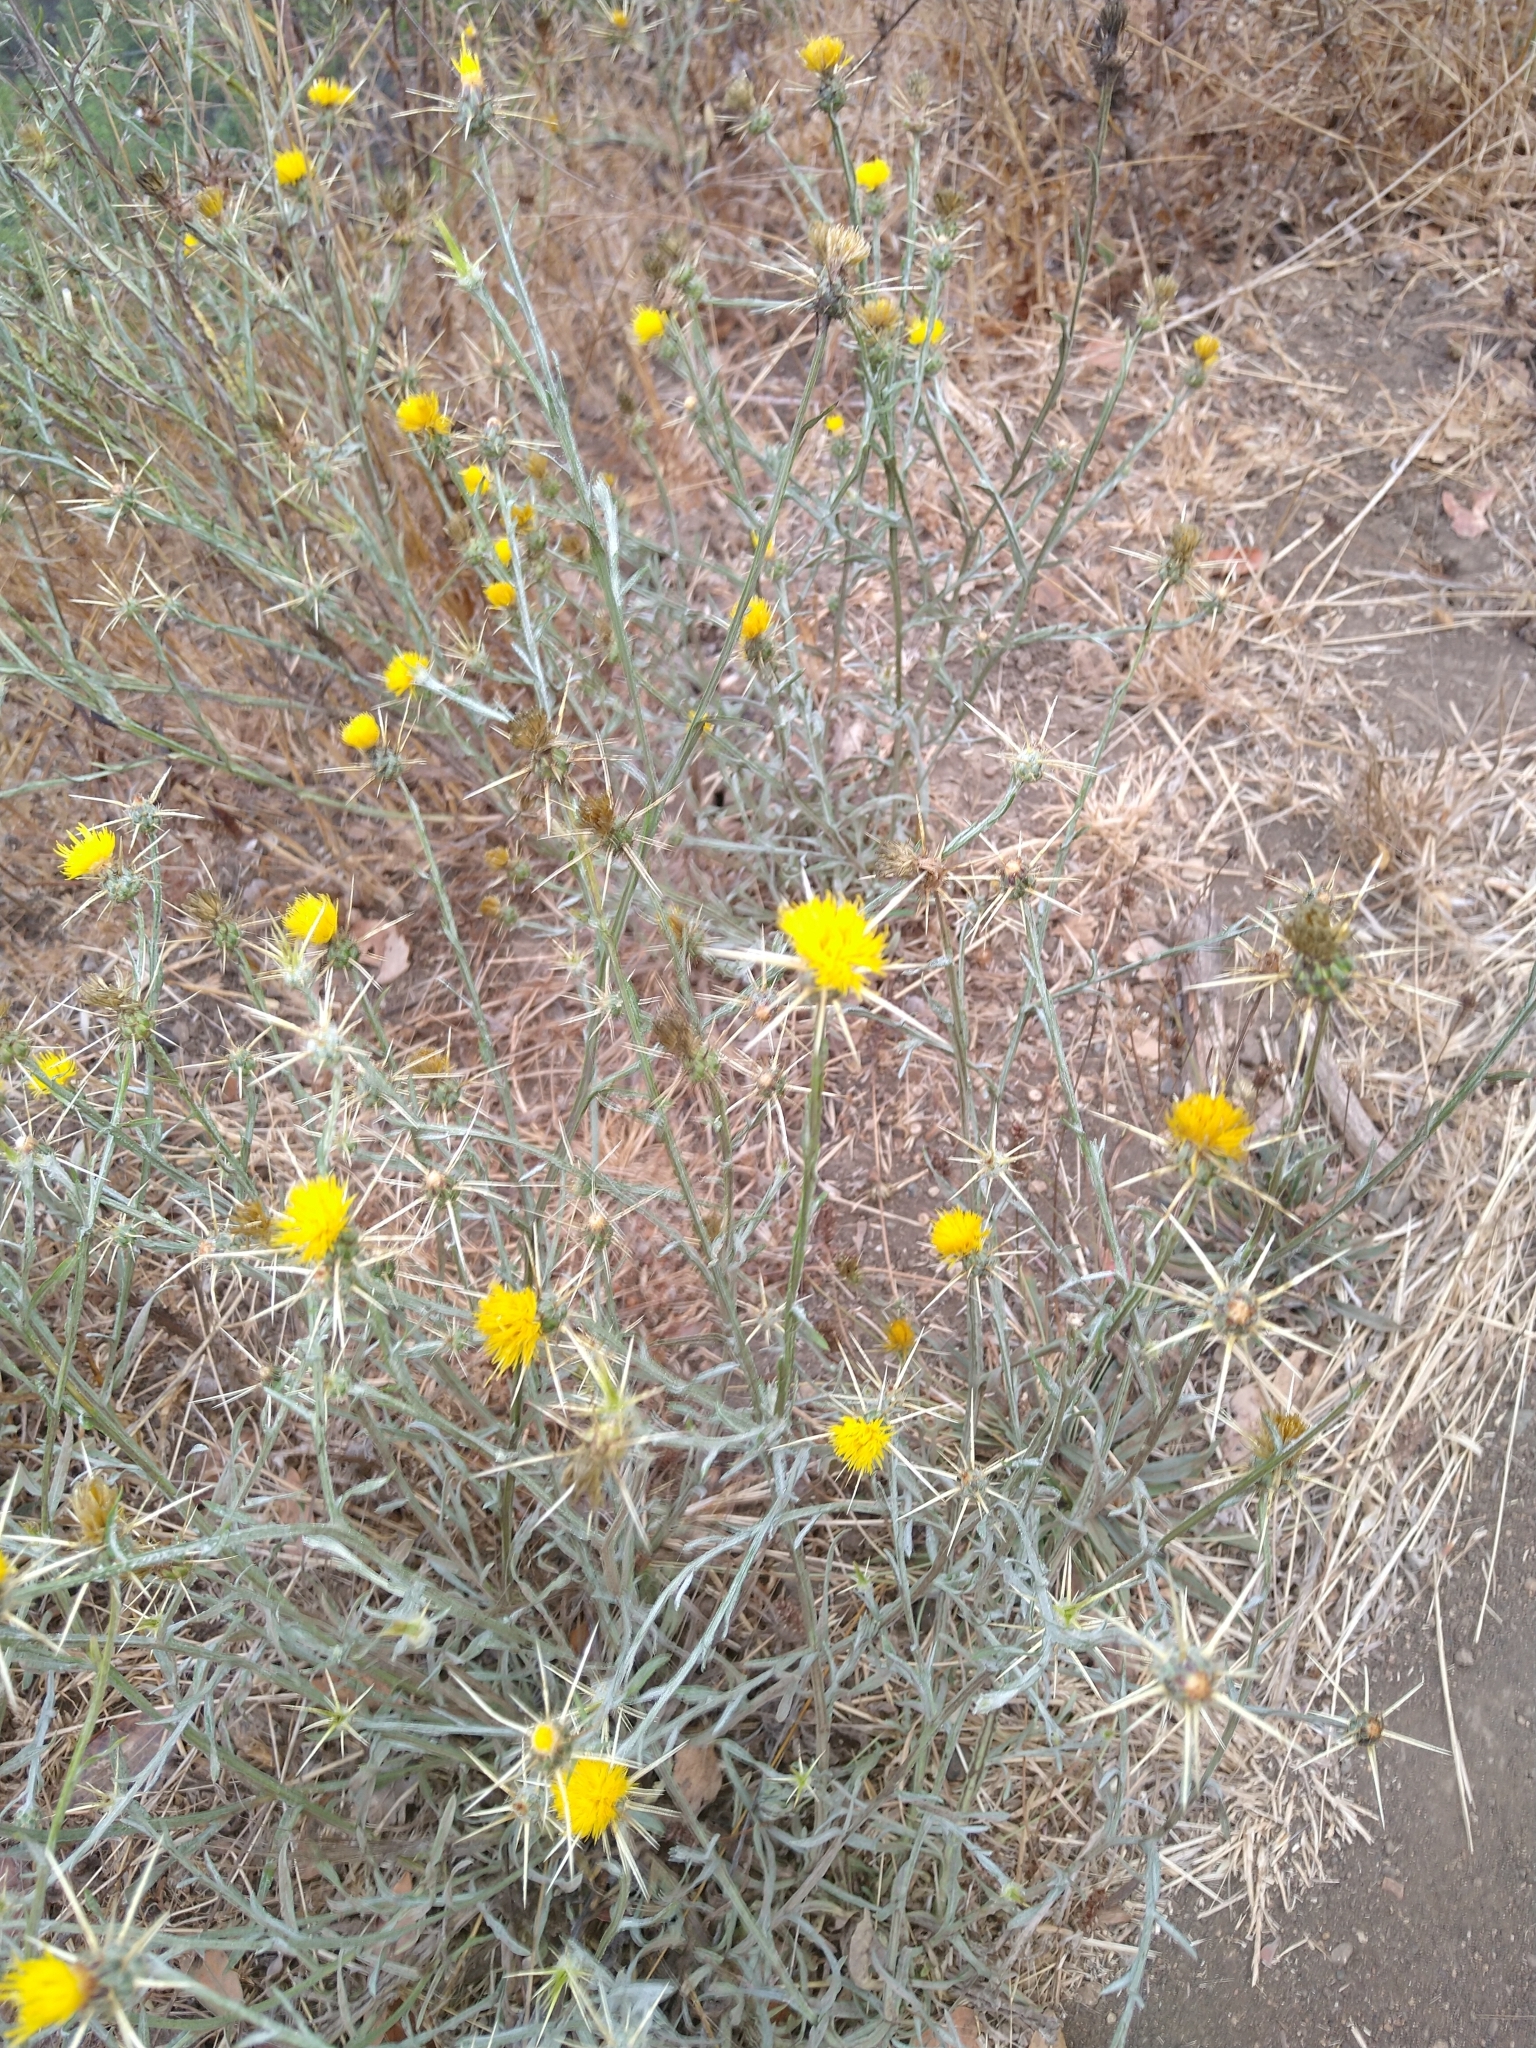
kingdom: Plantae
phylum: Tracheophyta
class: Magnoliopsida
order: Asterales
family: Asteraceae
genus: Centaurea
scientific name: Centaurea solstitialis
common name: Yellow star-thistle
